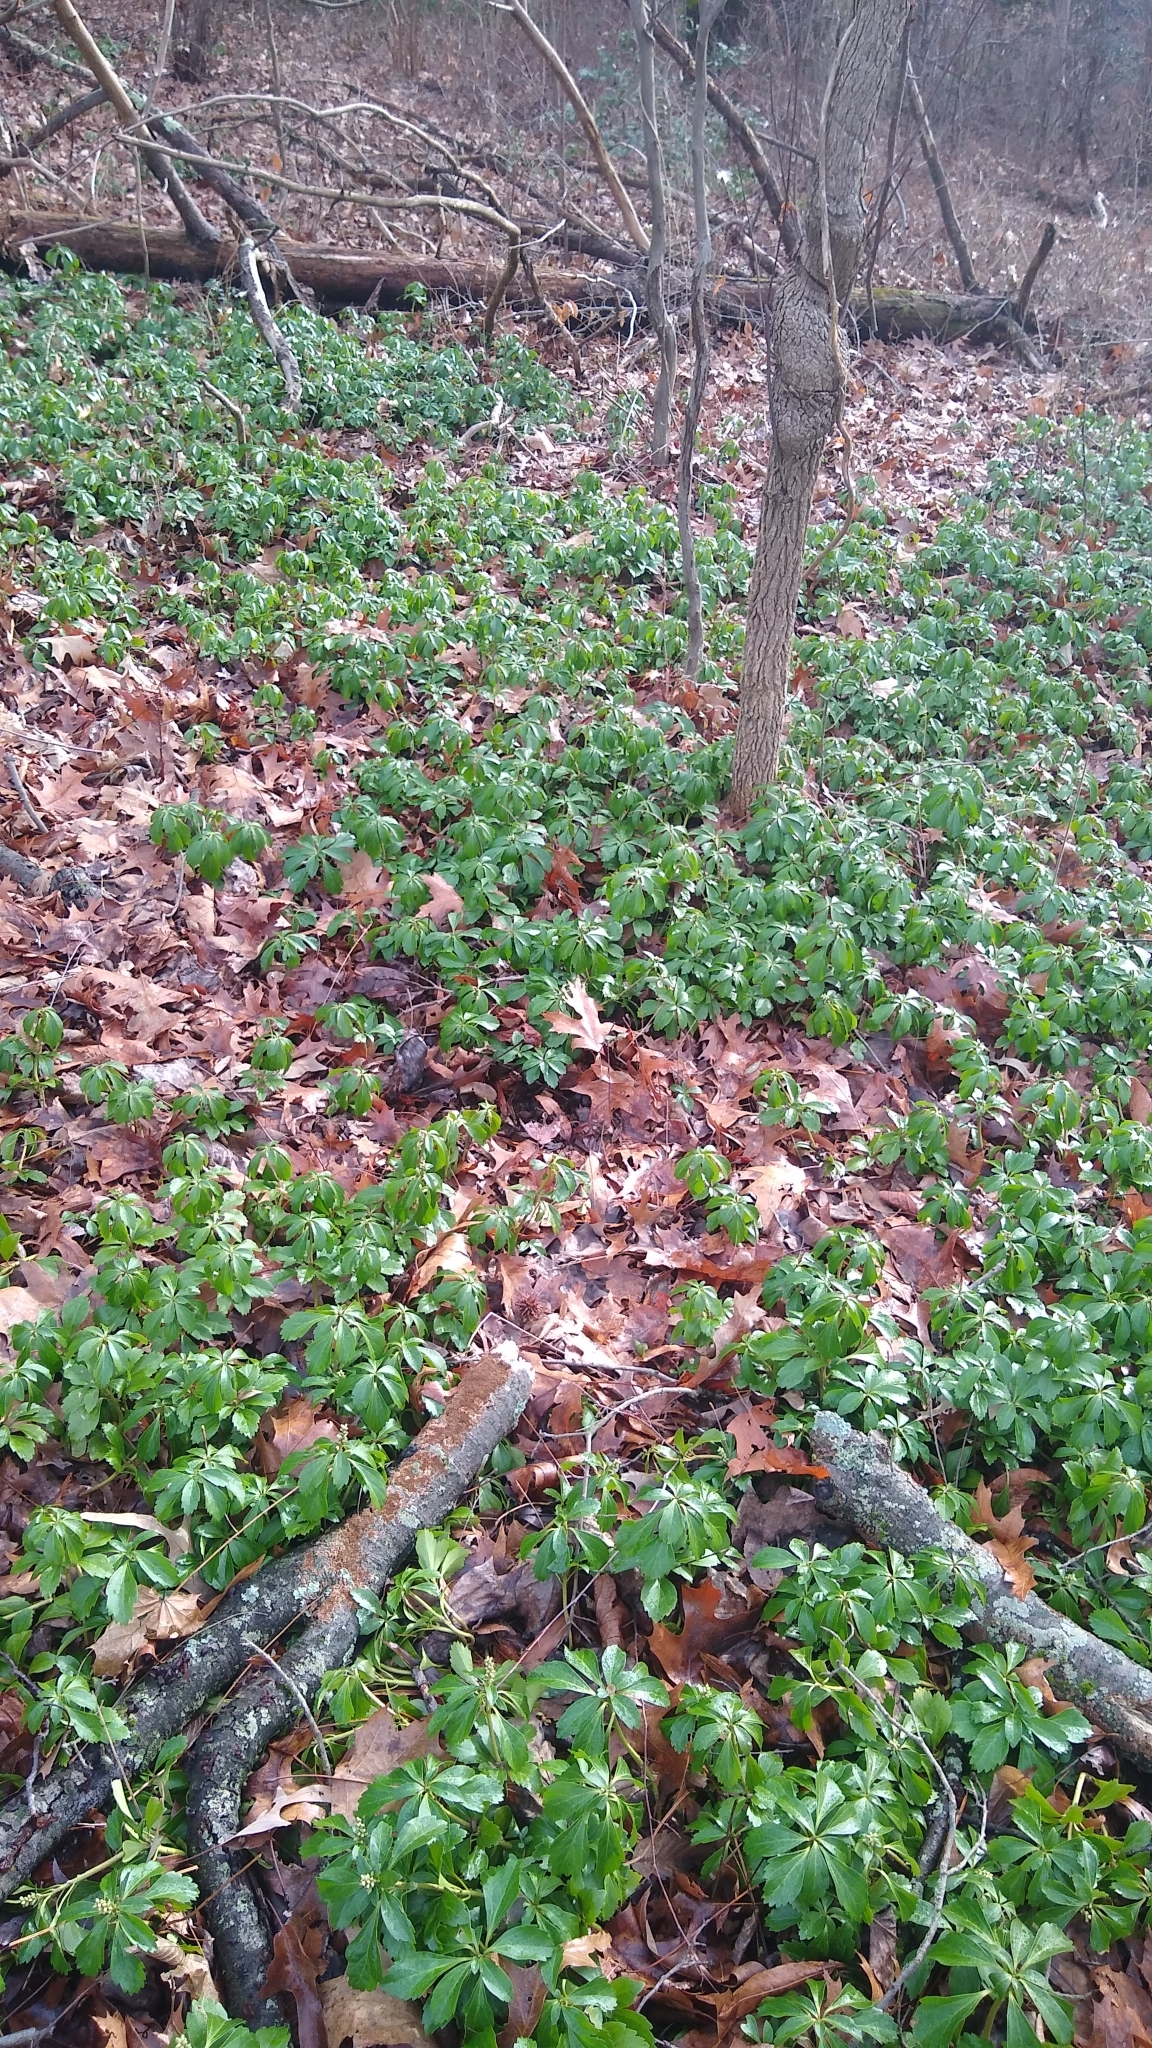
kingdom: Plantae
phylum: Tracheophyta
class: Magnoliopsida
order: Buxales
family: Buxaceae
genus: Pachysandra
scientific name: Pachysandra terminalis
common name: Japanese pachysandra
